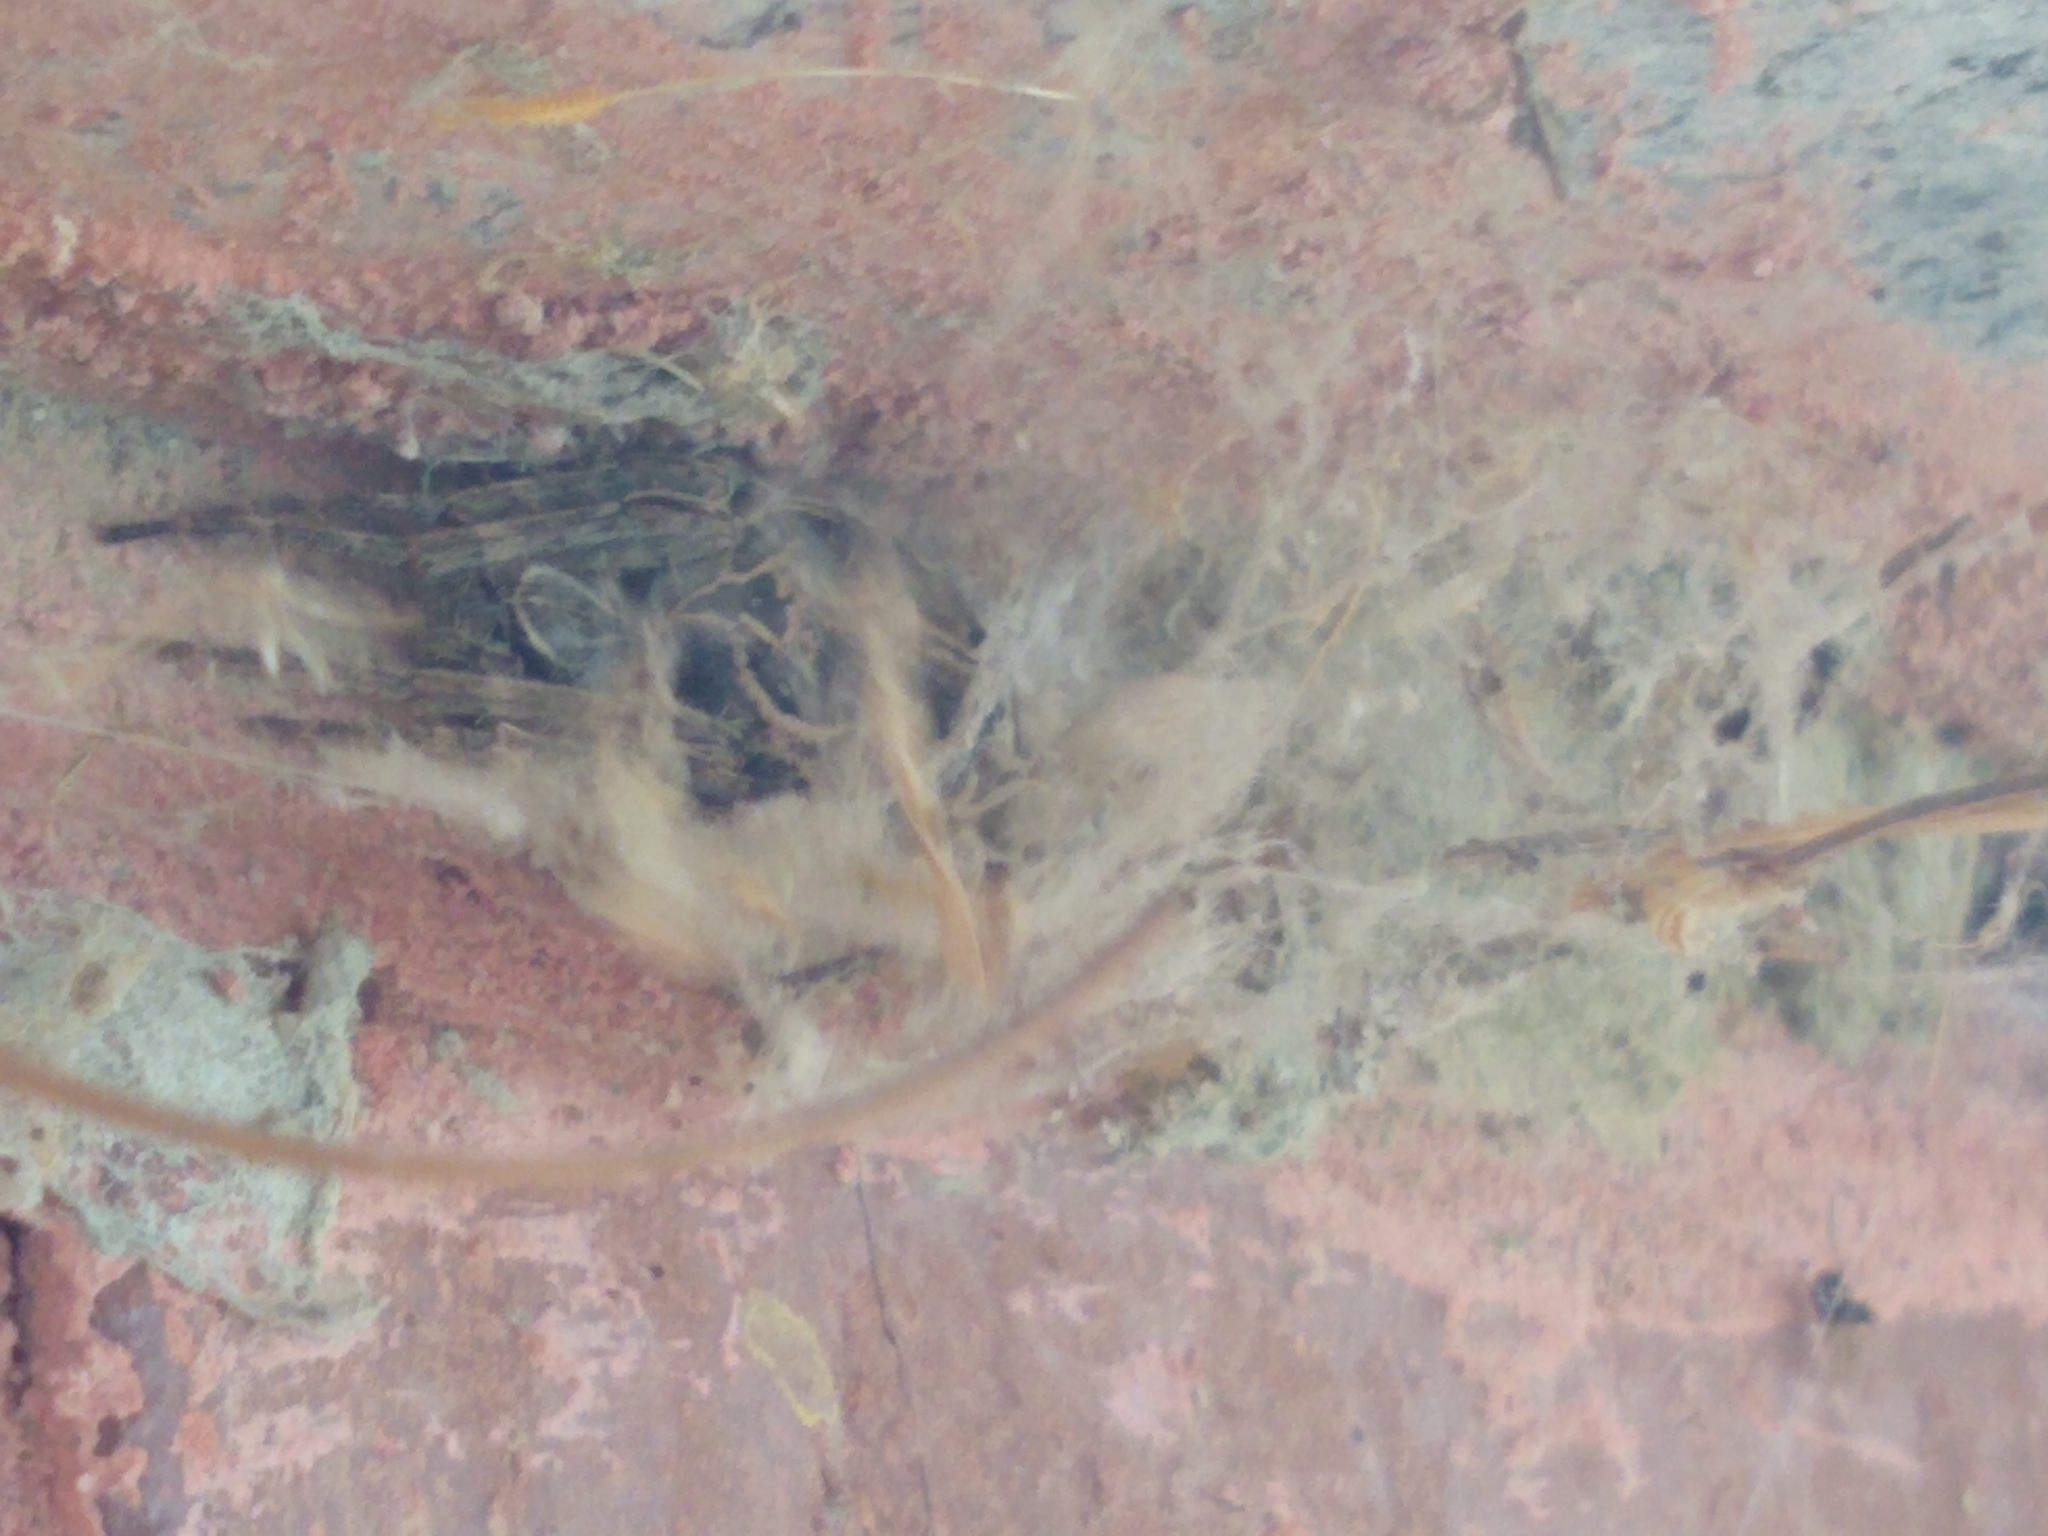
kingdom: Animalia
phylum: Arthropoda
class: Arachnida
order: Araneae
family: Araneidae
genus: Larinioides
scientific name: Larinioides sclopetarius
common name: Bridge orbweaver
